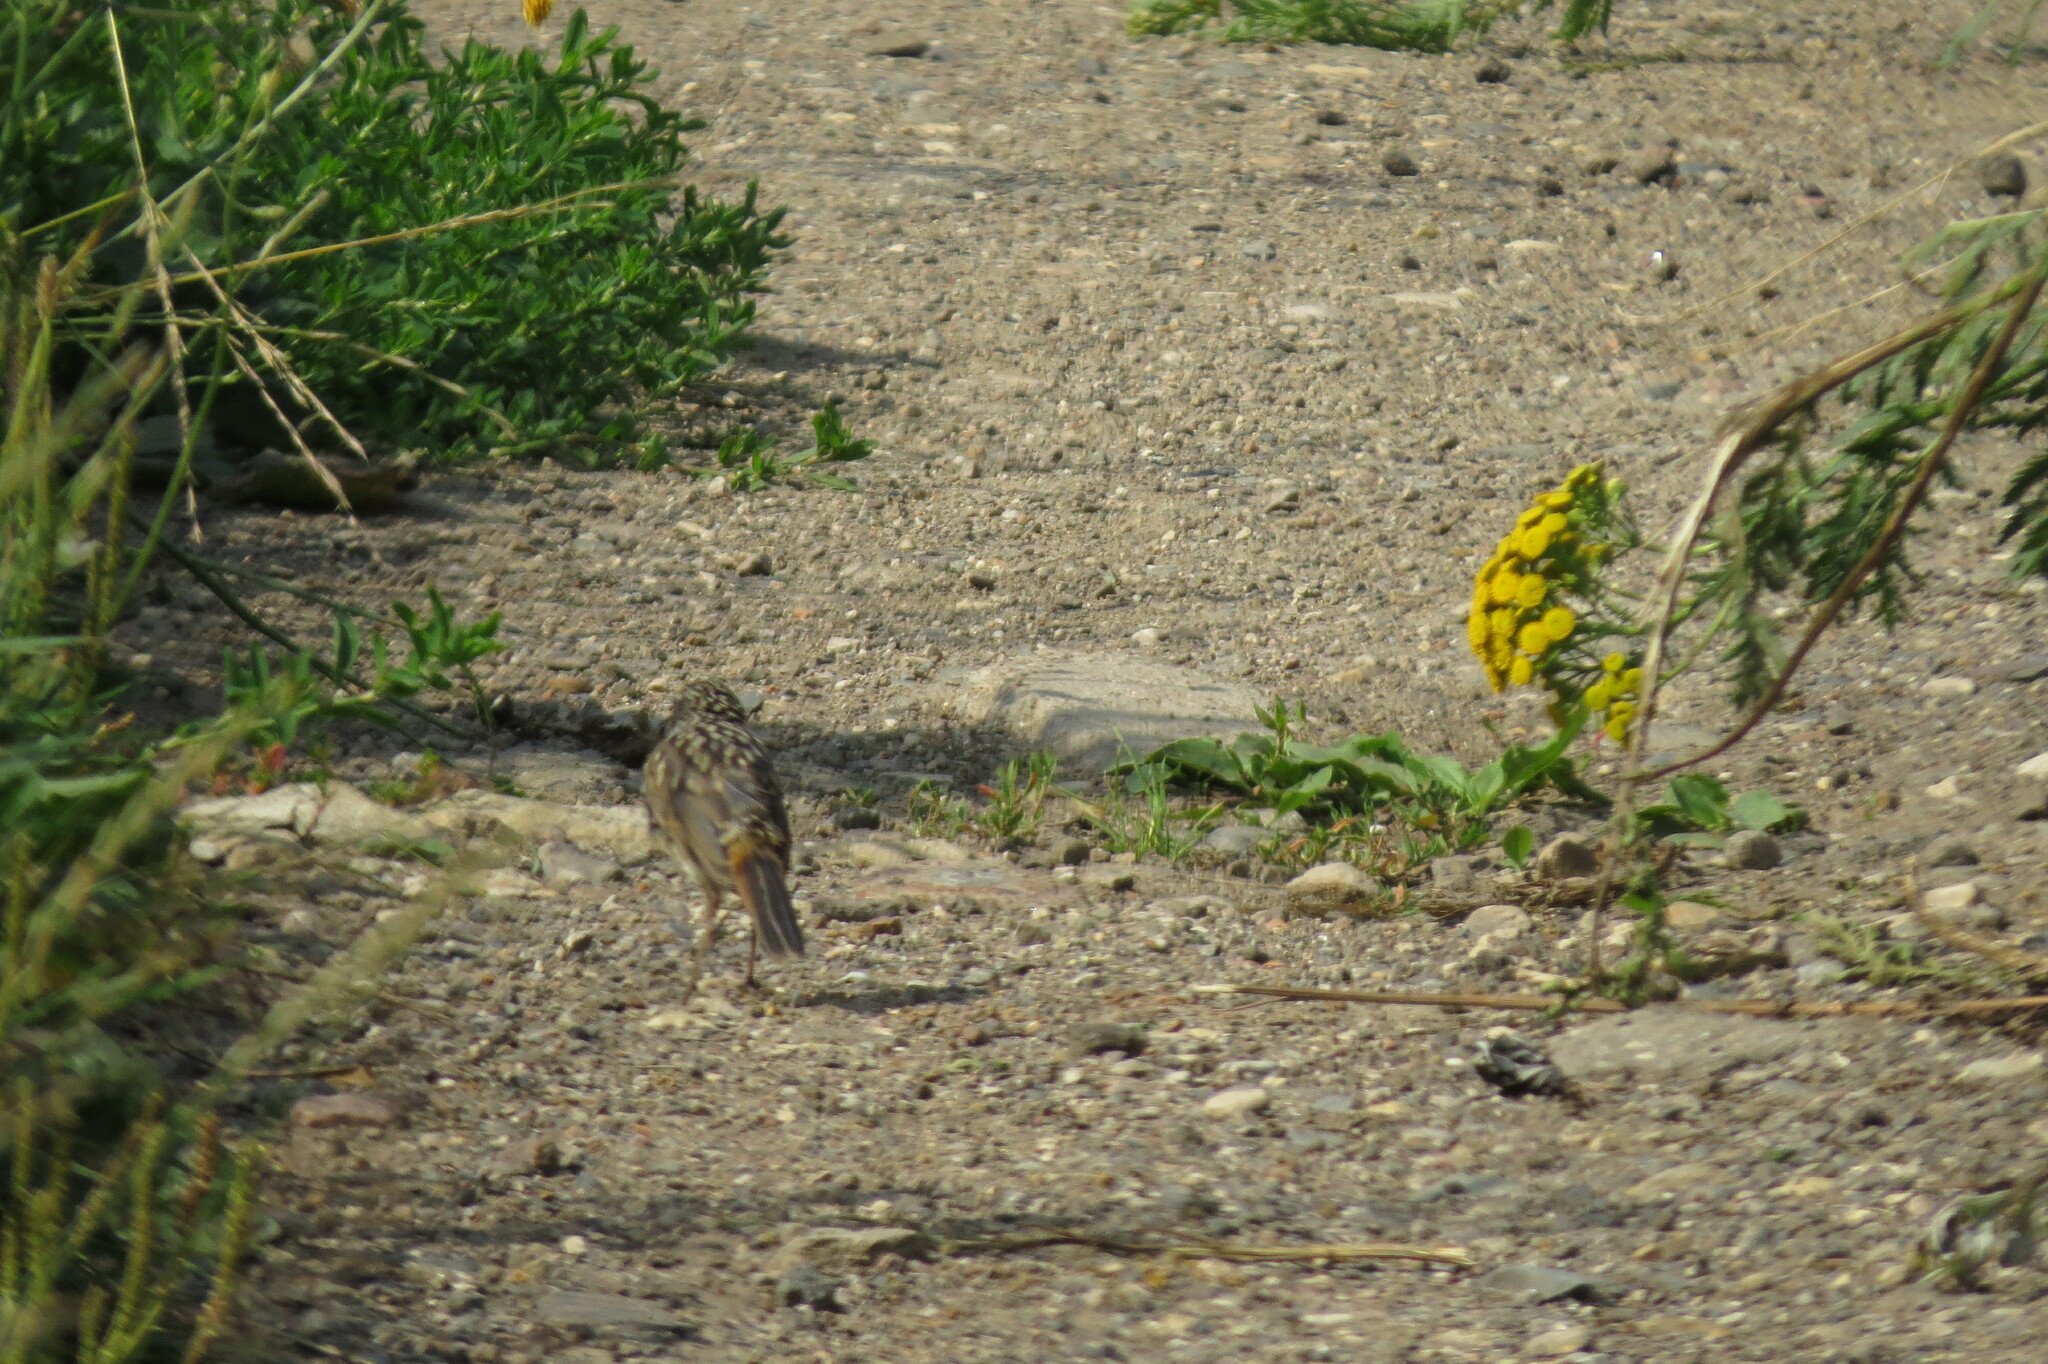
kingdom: Animalia
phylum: Chordata
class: Aves
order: Passeriformes
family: Muscicapidae
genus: Luscinia
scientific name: Luscinia svecica
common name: Bluethroat
